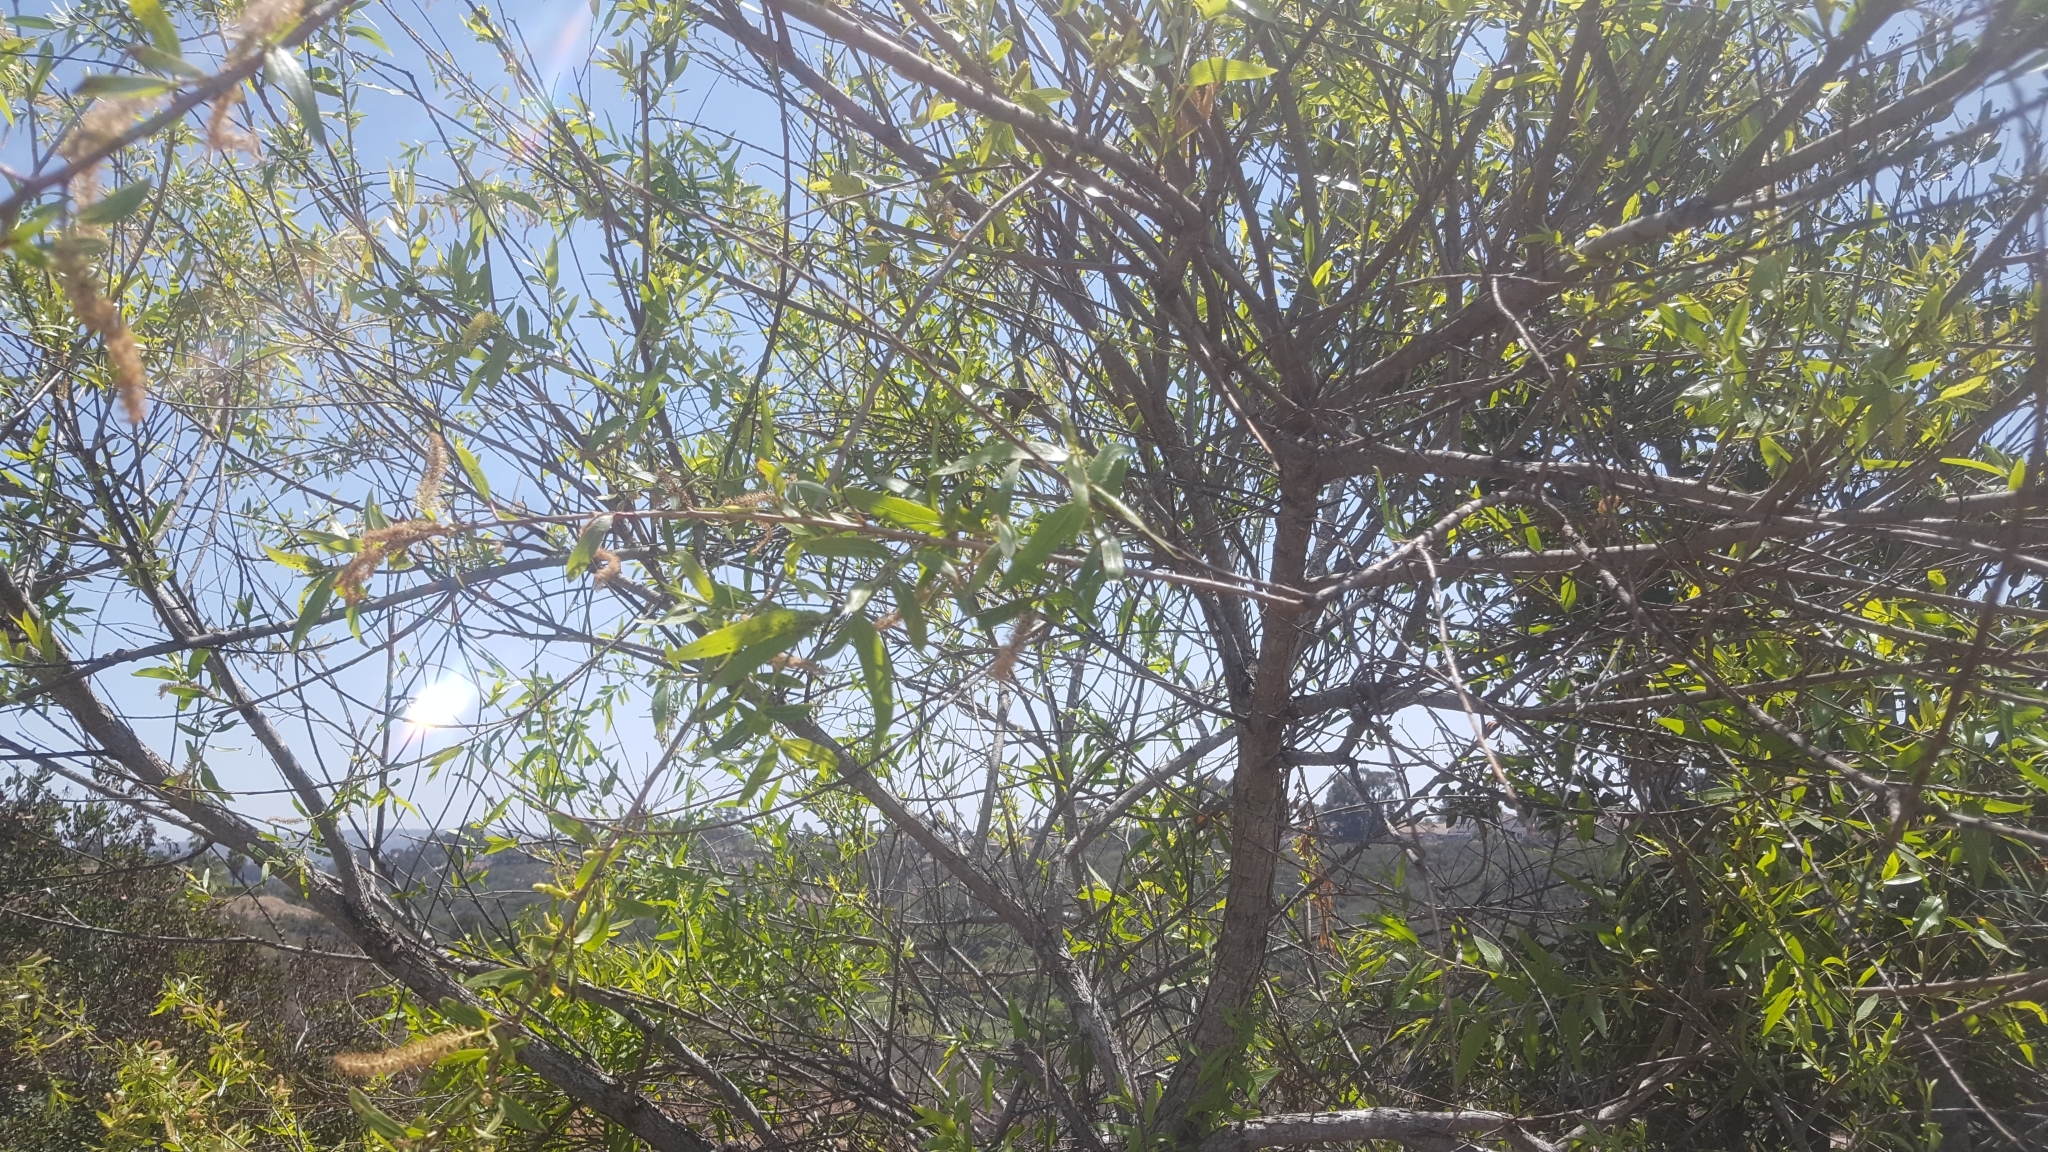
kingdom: Plantae
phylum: Tracheophyta
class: Magnoliopsida
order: Malpighiales
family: Salicaceae
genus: Salix
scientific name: Salix gooddingii
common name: Goodding's willow
